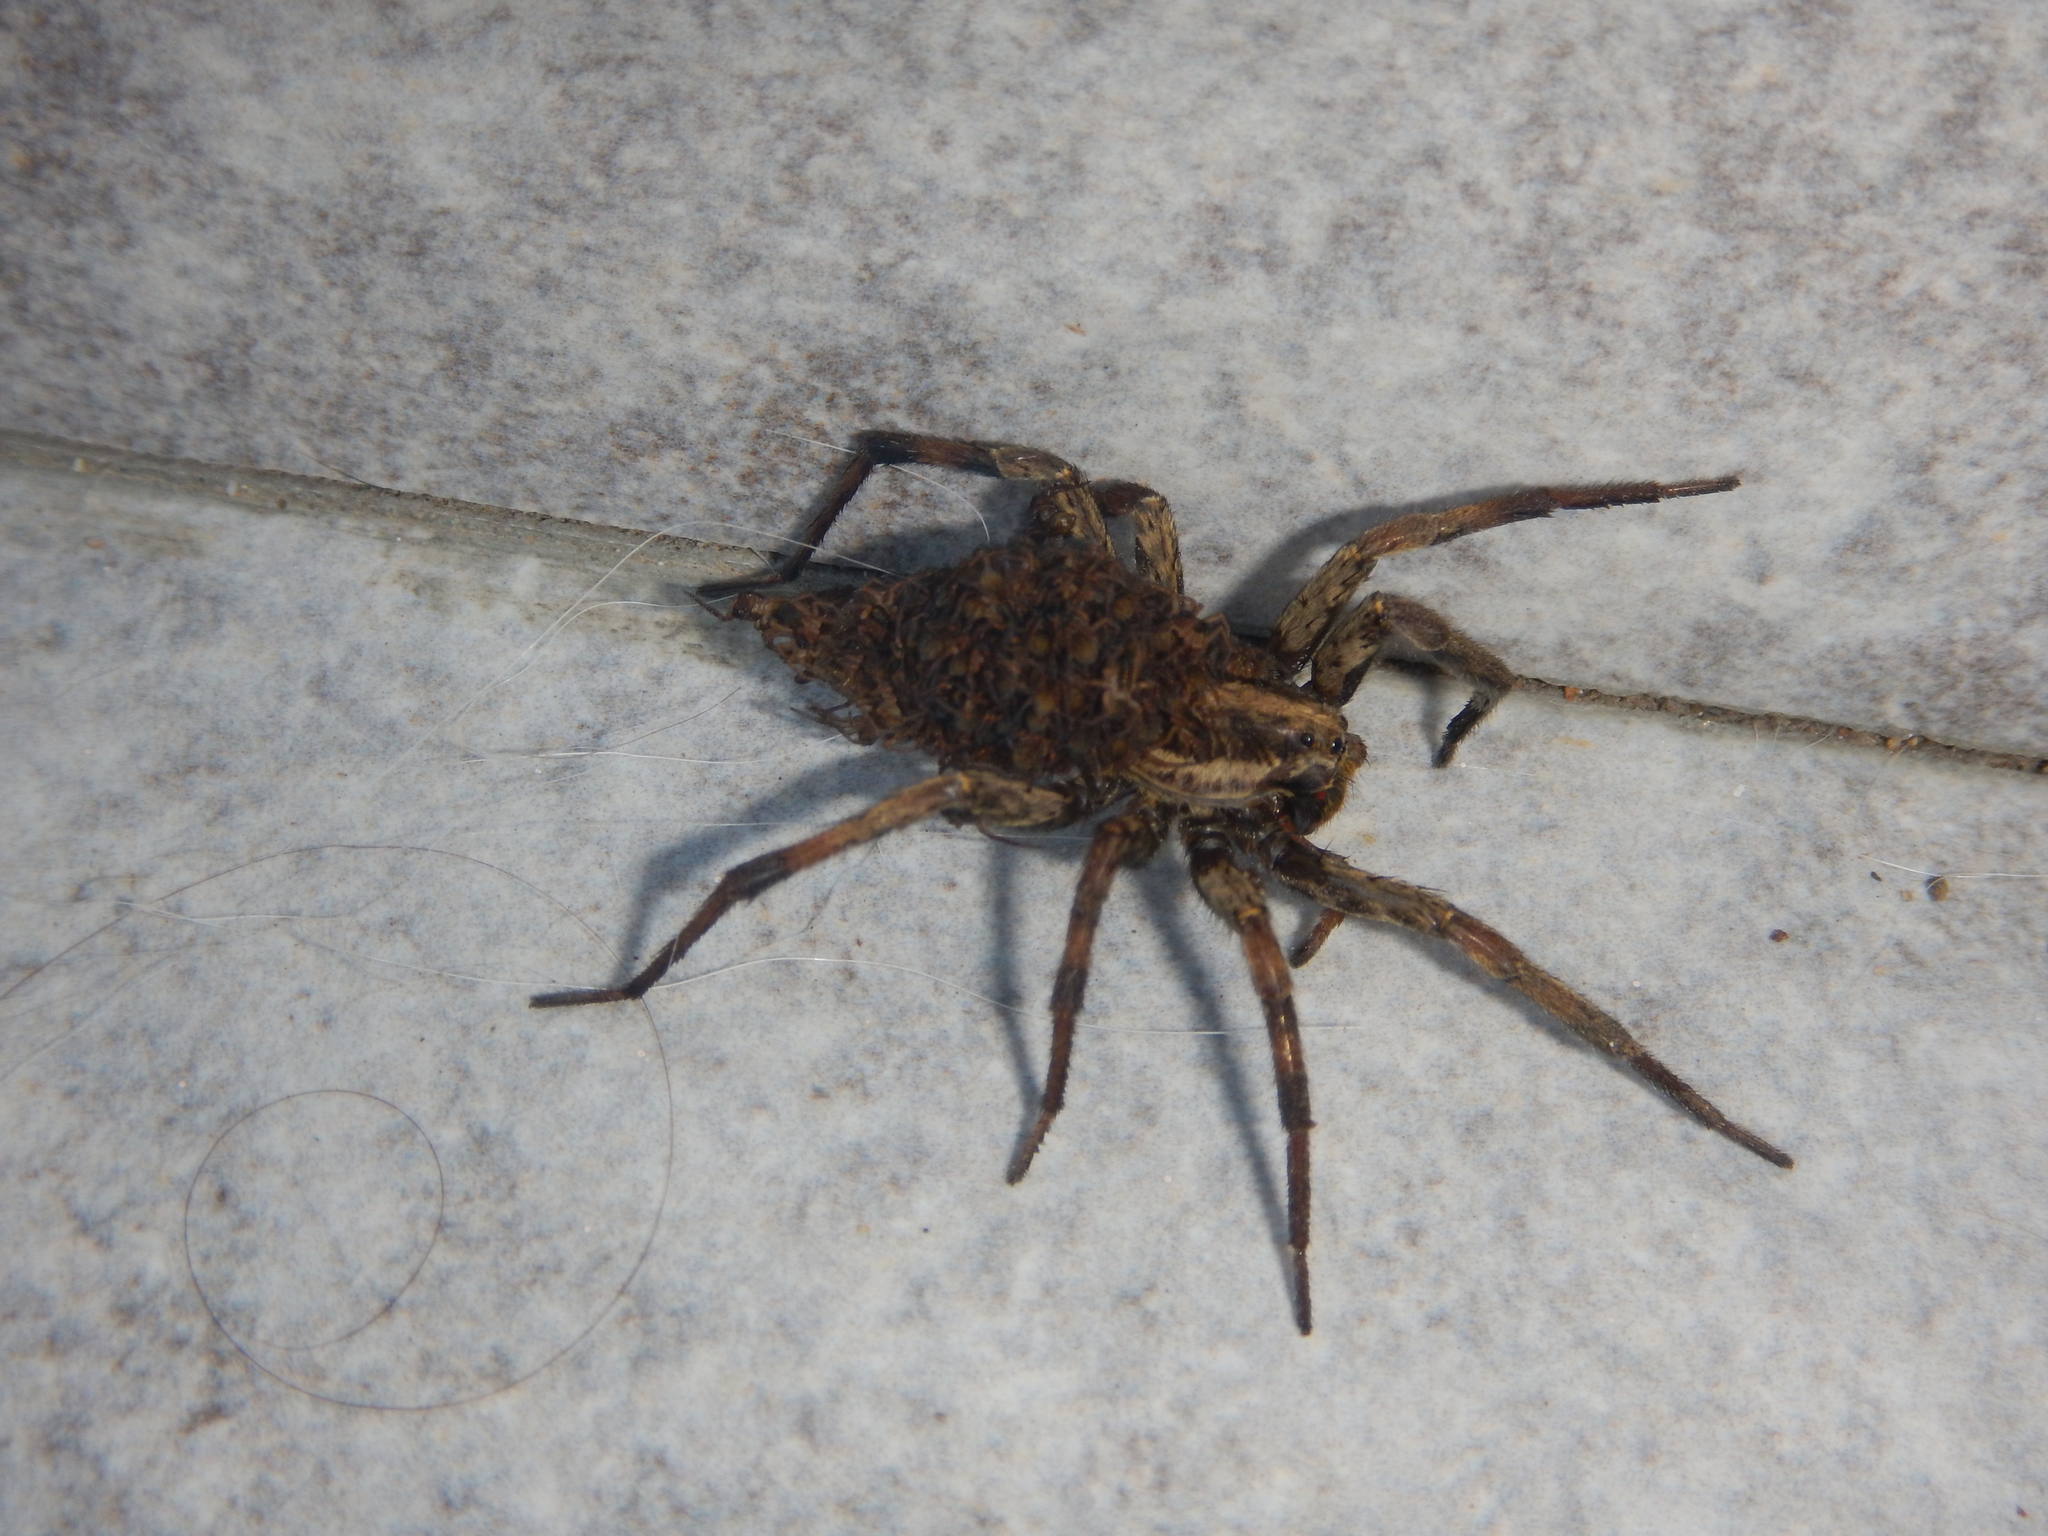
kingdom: Animalia
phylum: Arthropoda
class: Arachnida
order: Araneae
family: Lycosidae
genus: Hogna
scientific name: Hogna radiata
